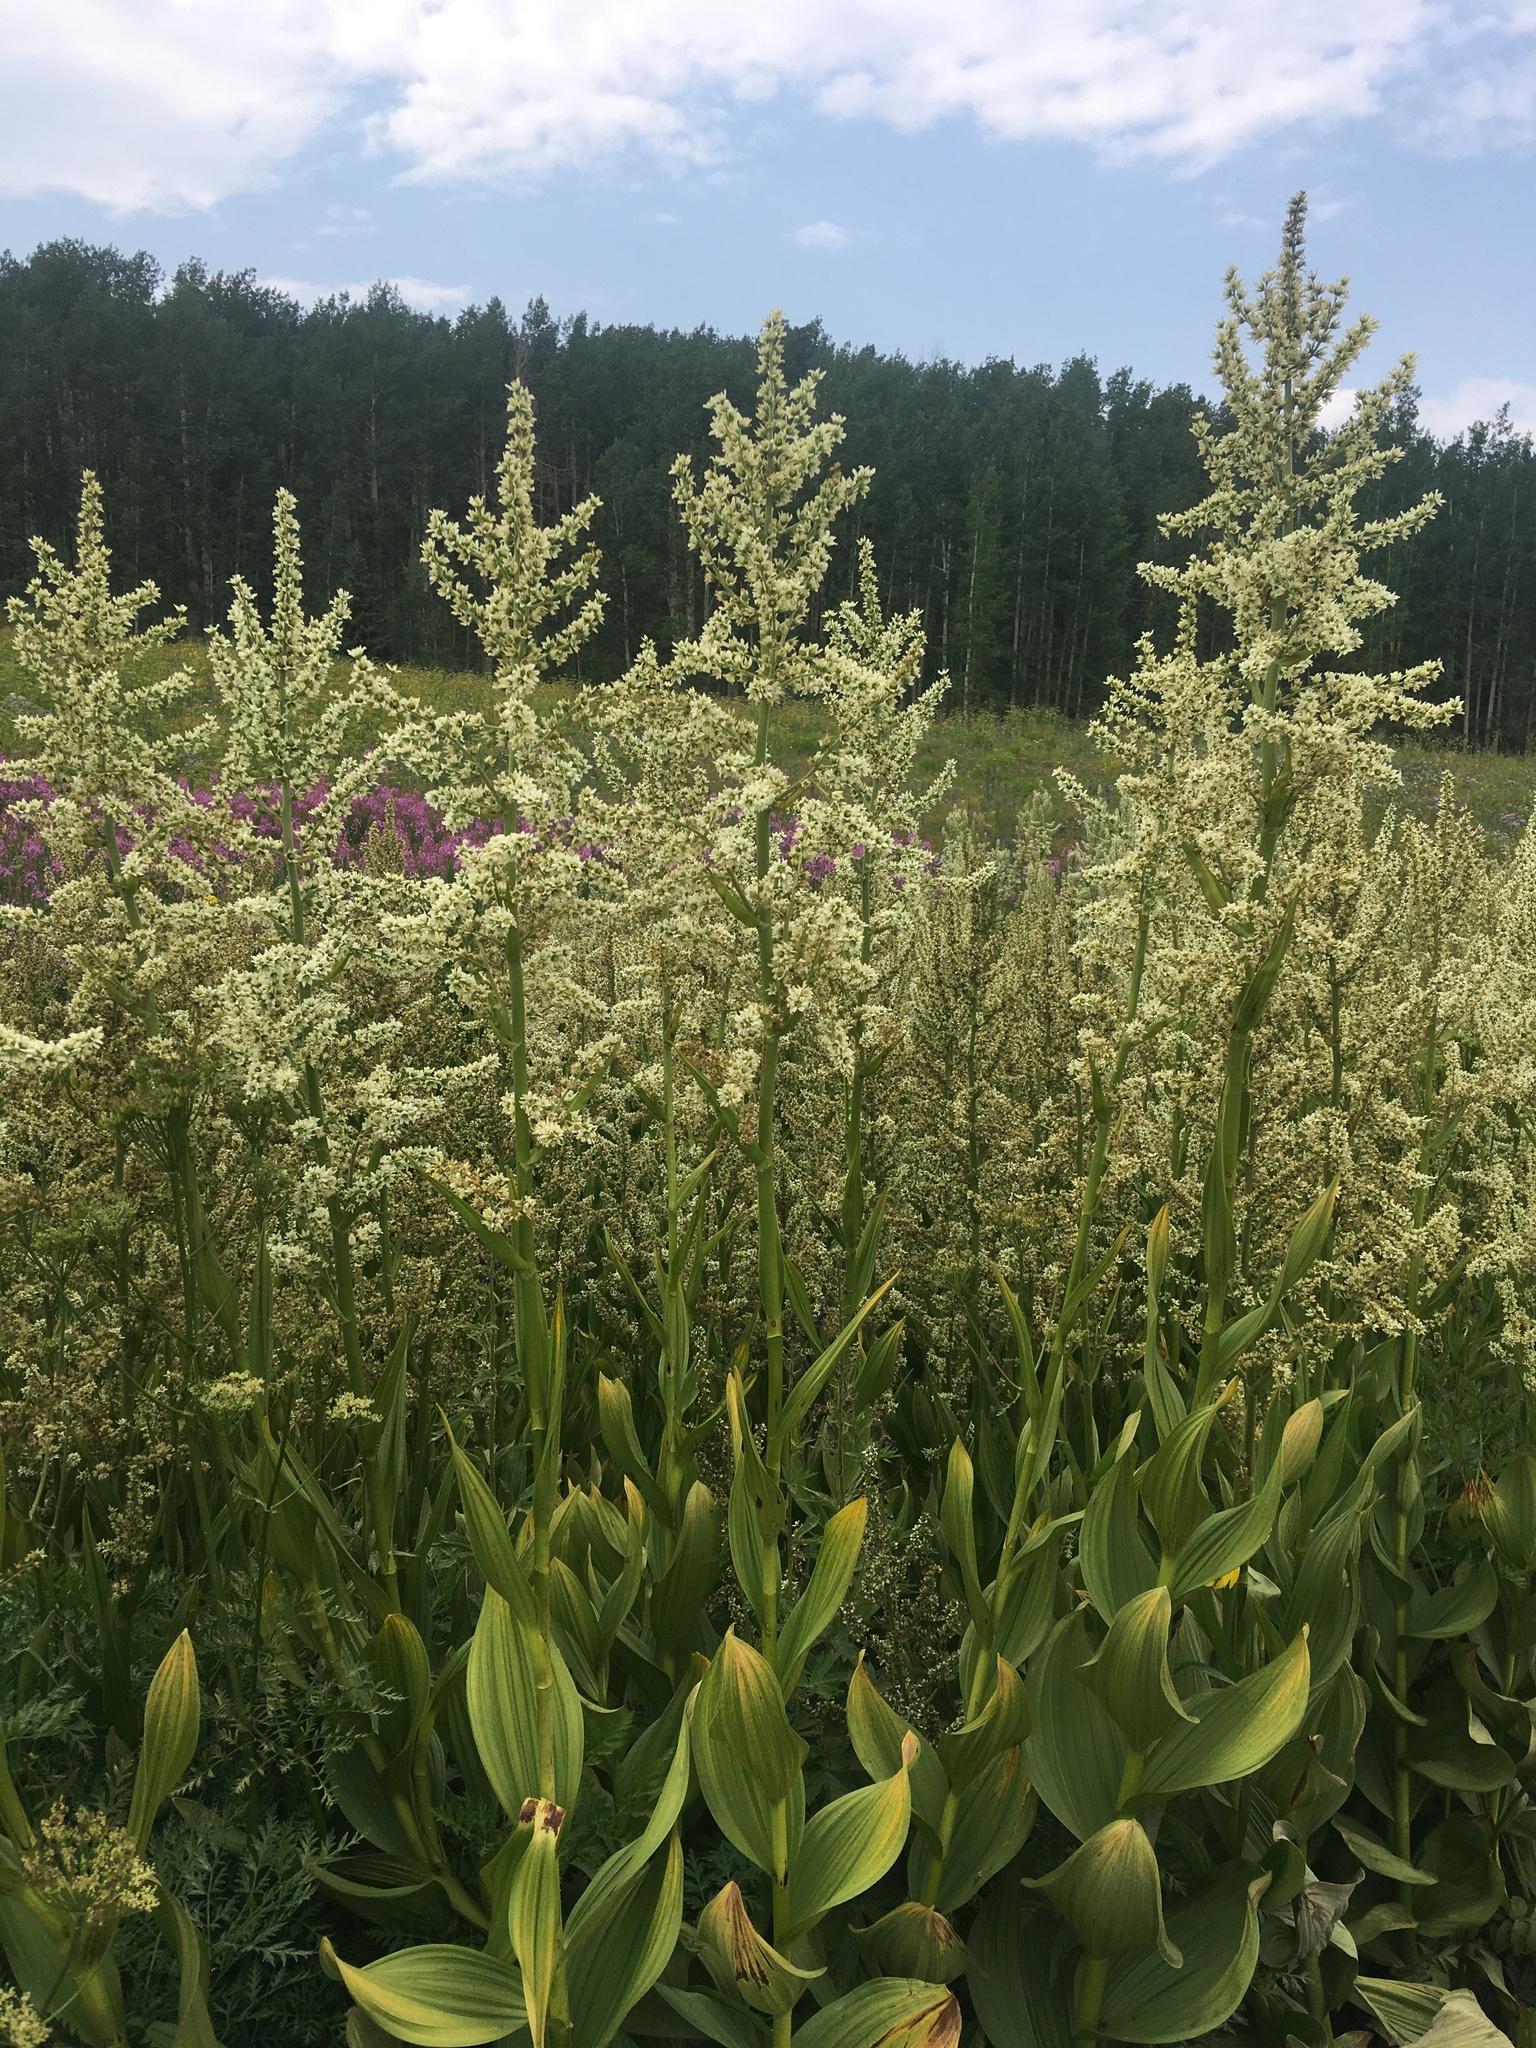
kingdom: Plantae
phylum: Tracheophyta
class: Liliopsida
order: Liliales
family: Melanthiaceae
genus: Veratrum
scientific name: Veratrum californicum
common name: California veratrum
